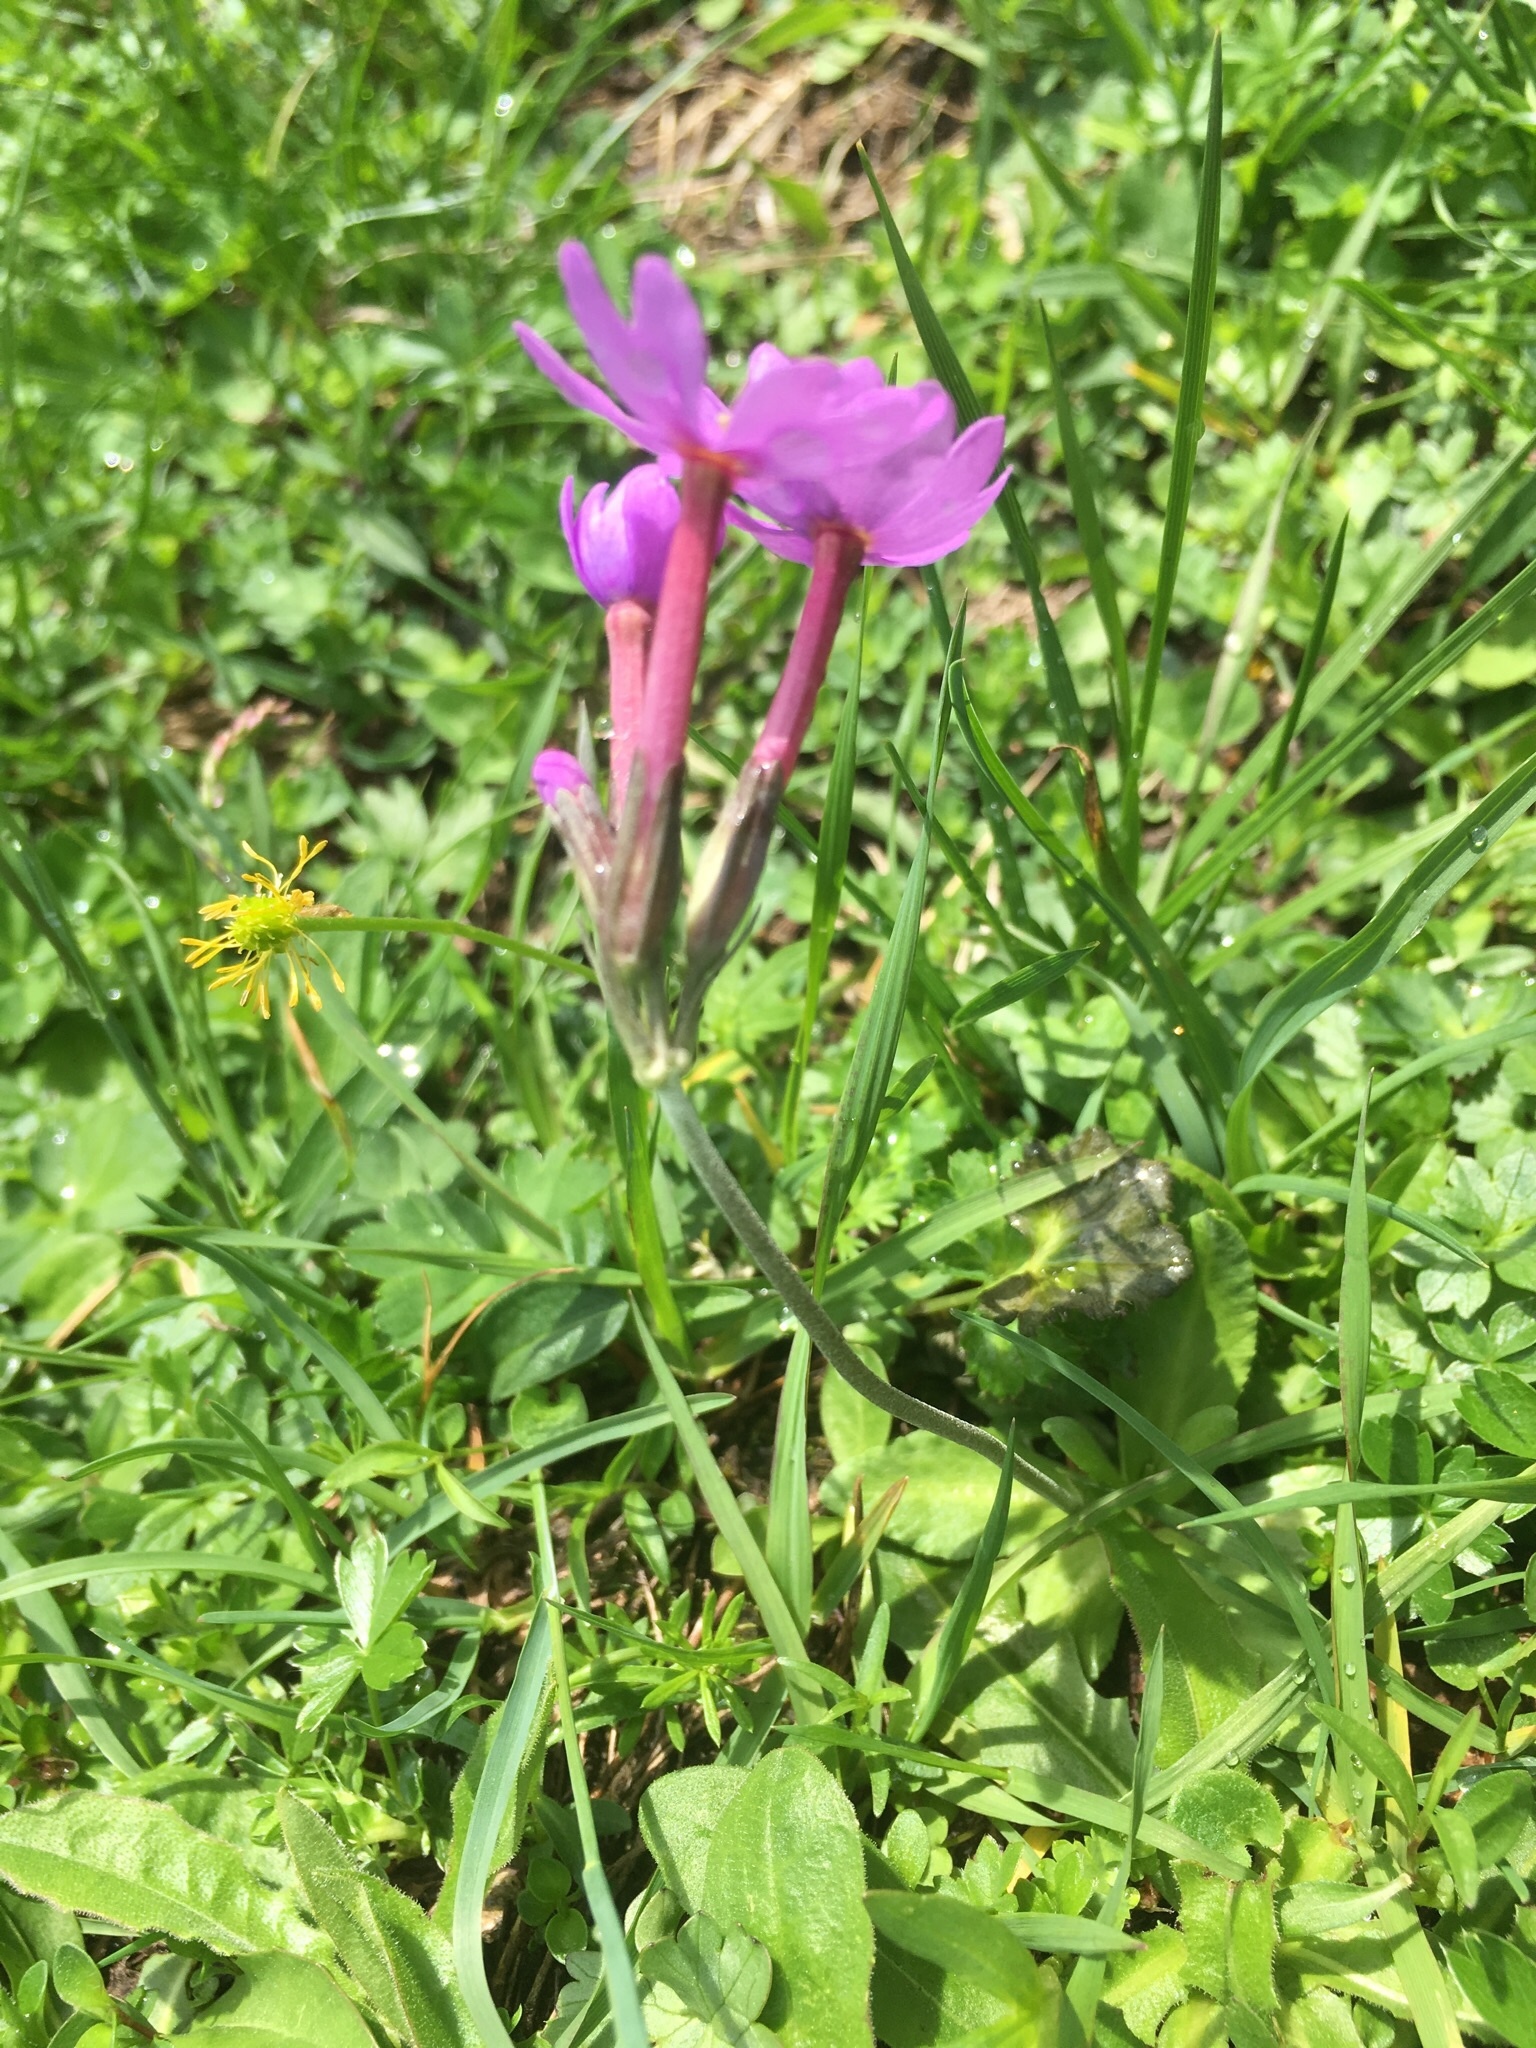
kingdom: Plantae
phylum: Tracheophyta
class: Magnoliopsida
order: Ericales
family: Primulaceae
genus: Primula
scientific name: Primula halleri
